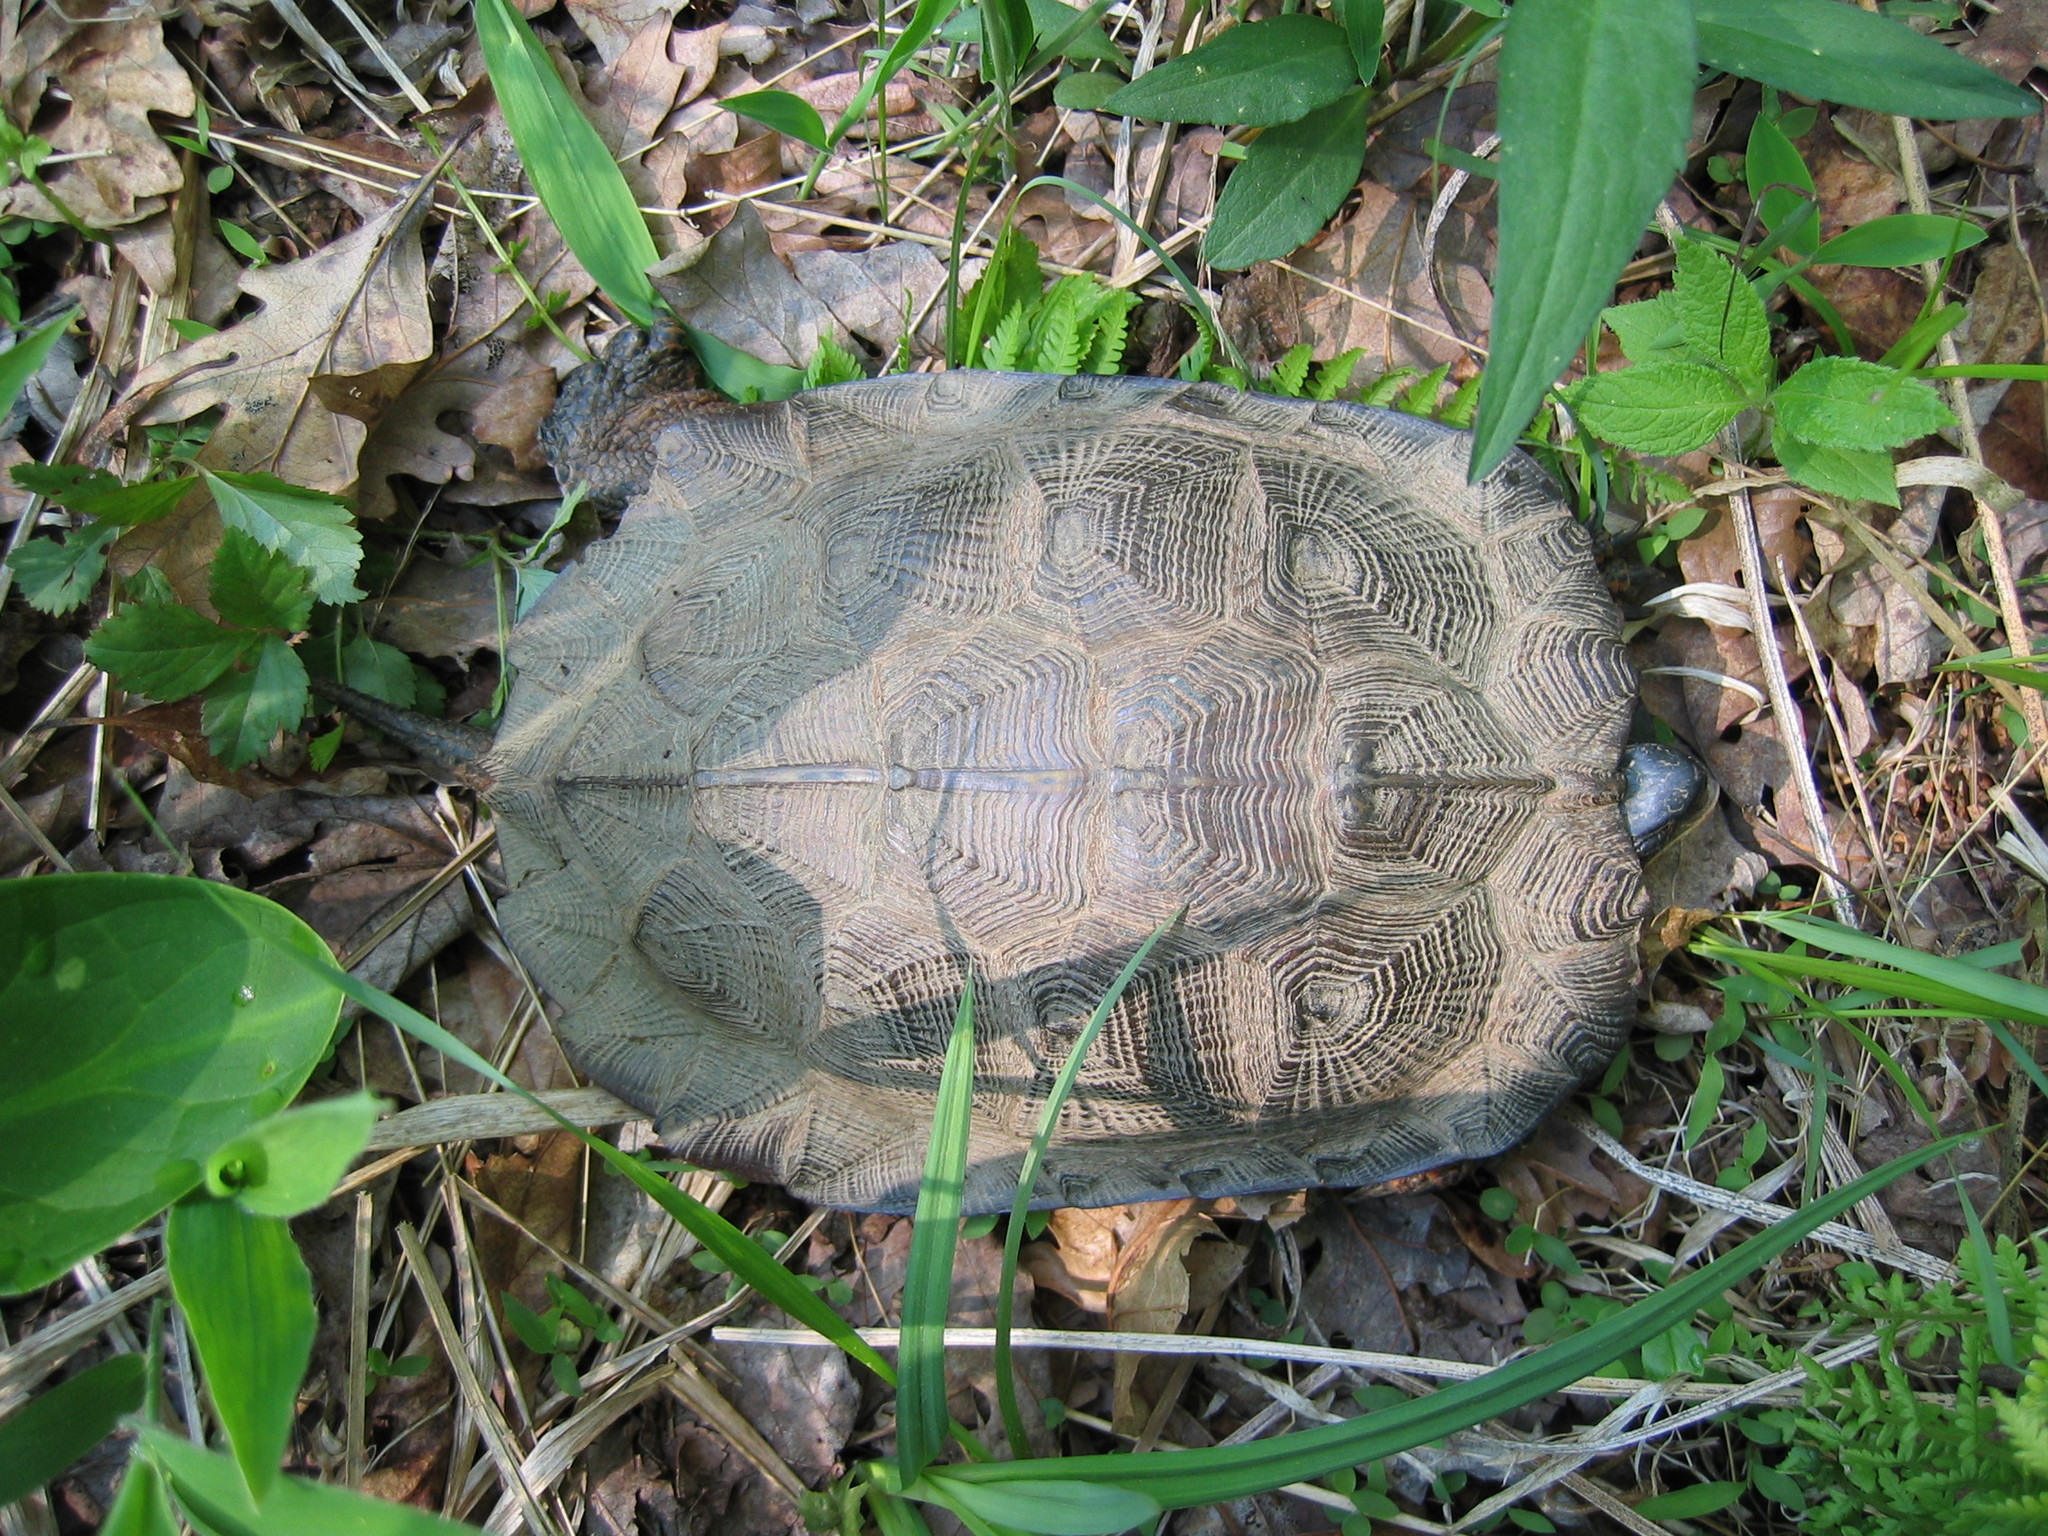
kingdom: Animalia
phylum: Chordata
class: Testudines
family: Emydidae
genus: Glyptemys
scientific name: Glyptemys insculpta
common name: Wood turtle
